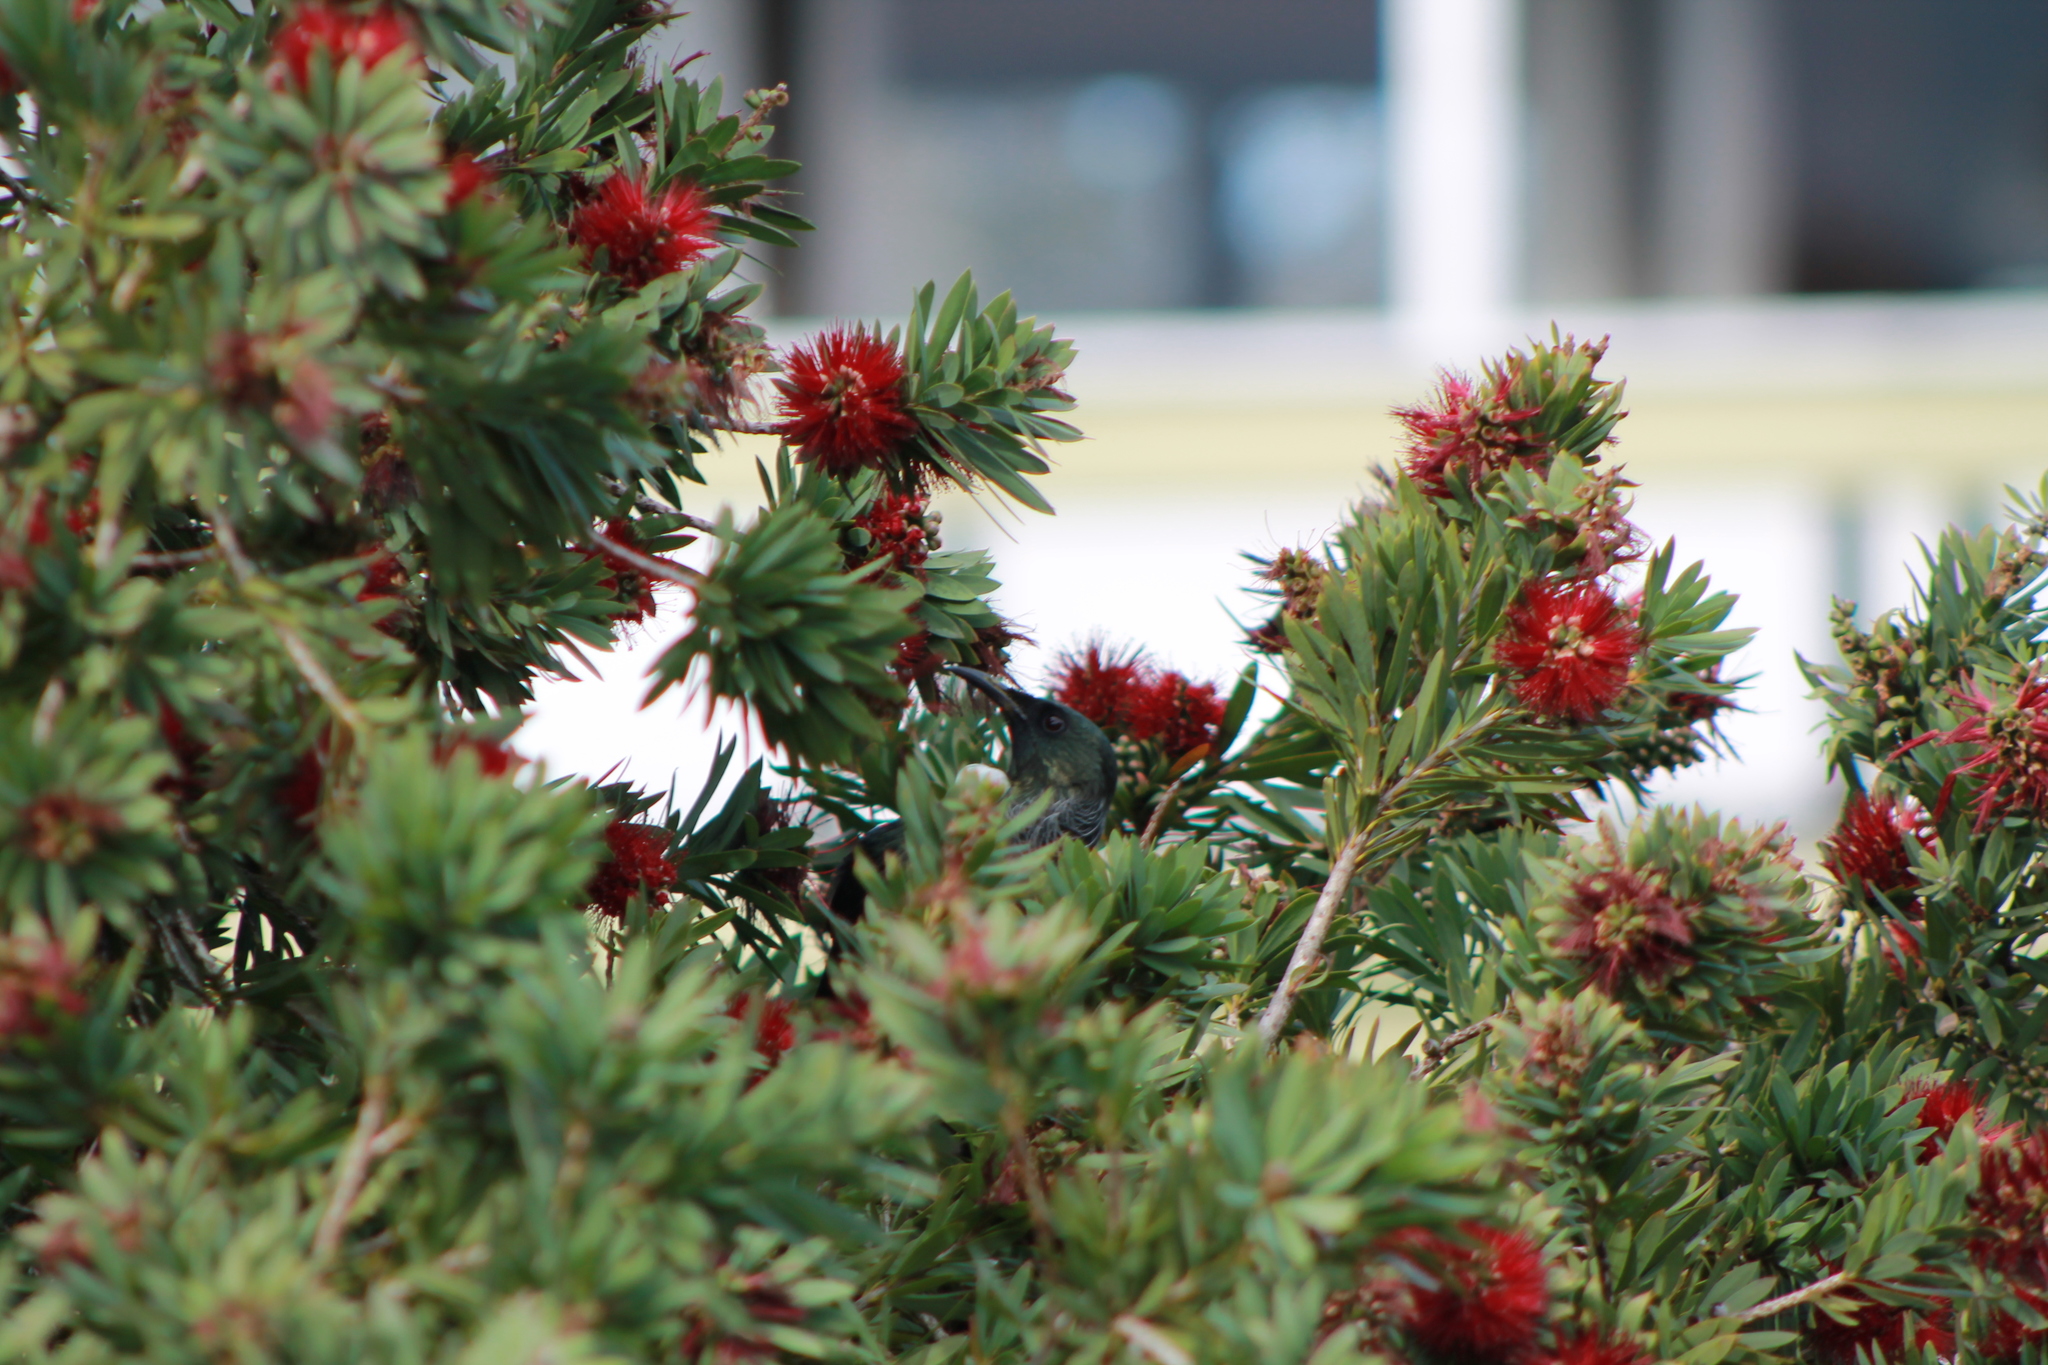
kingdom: Animalia
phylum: Chordata
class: Aves
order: Passeriformes
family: Meliphagidae
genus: Prosthemadera
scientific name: Prosthemadera novaeseelandiae
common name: Tui
